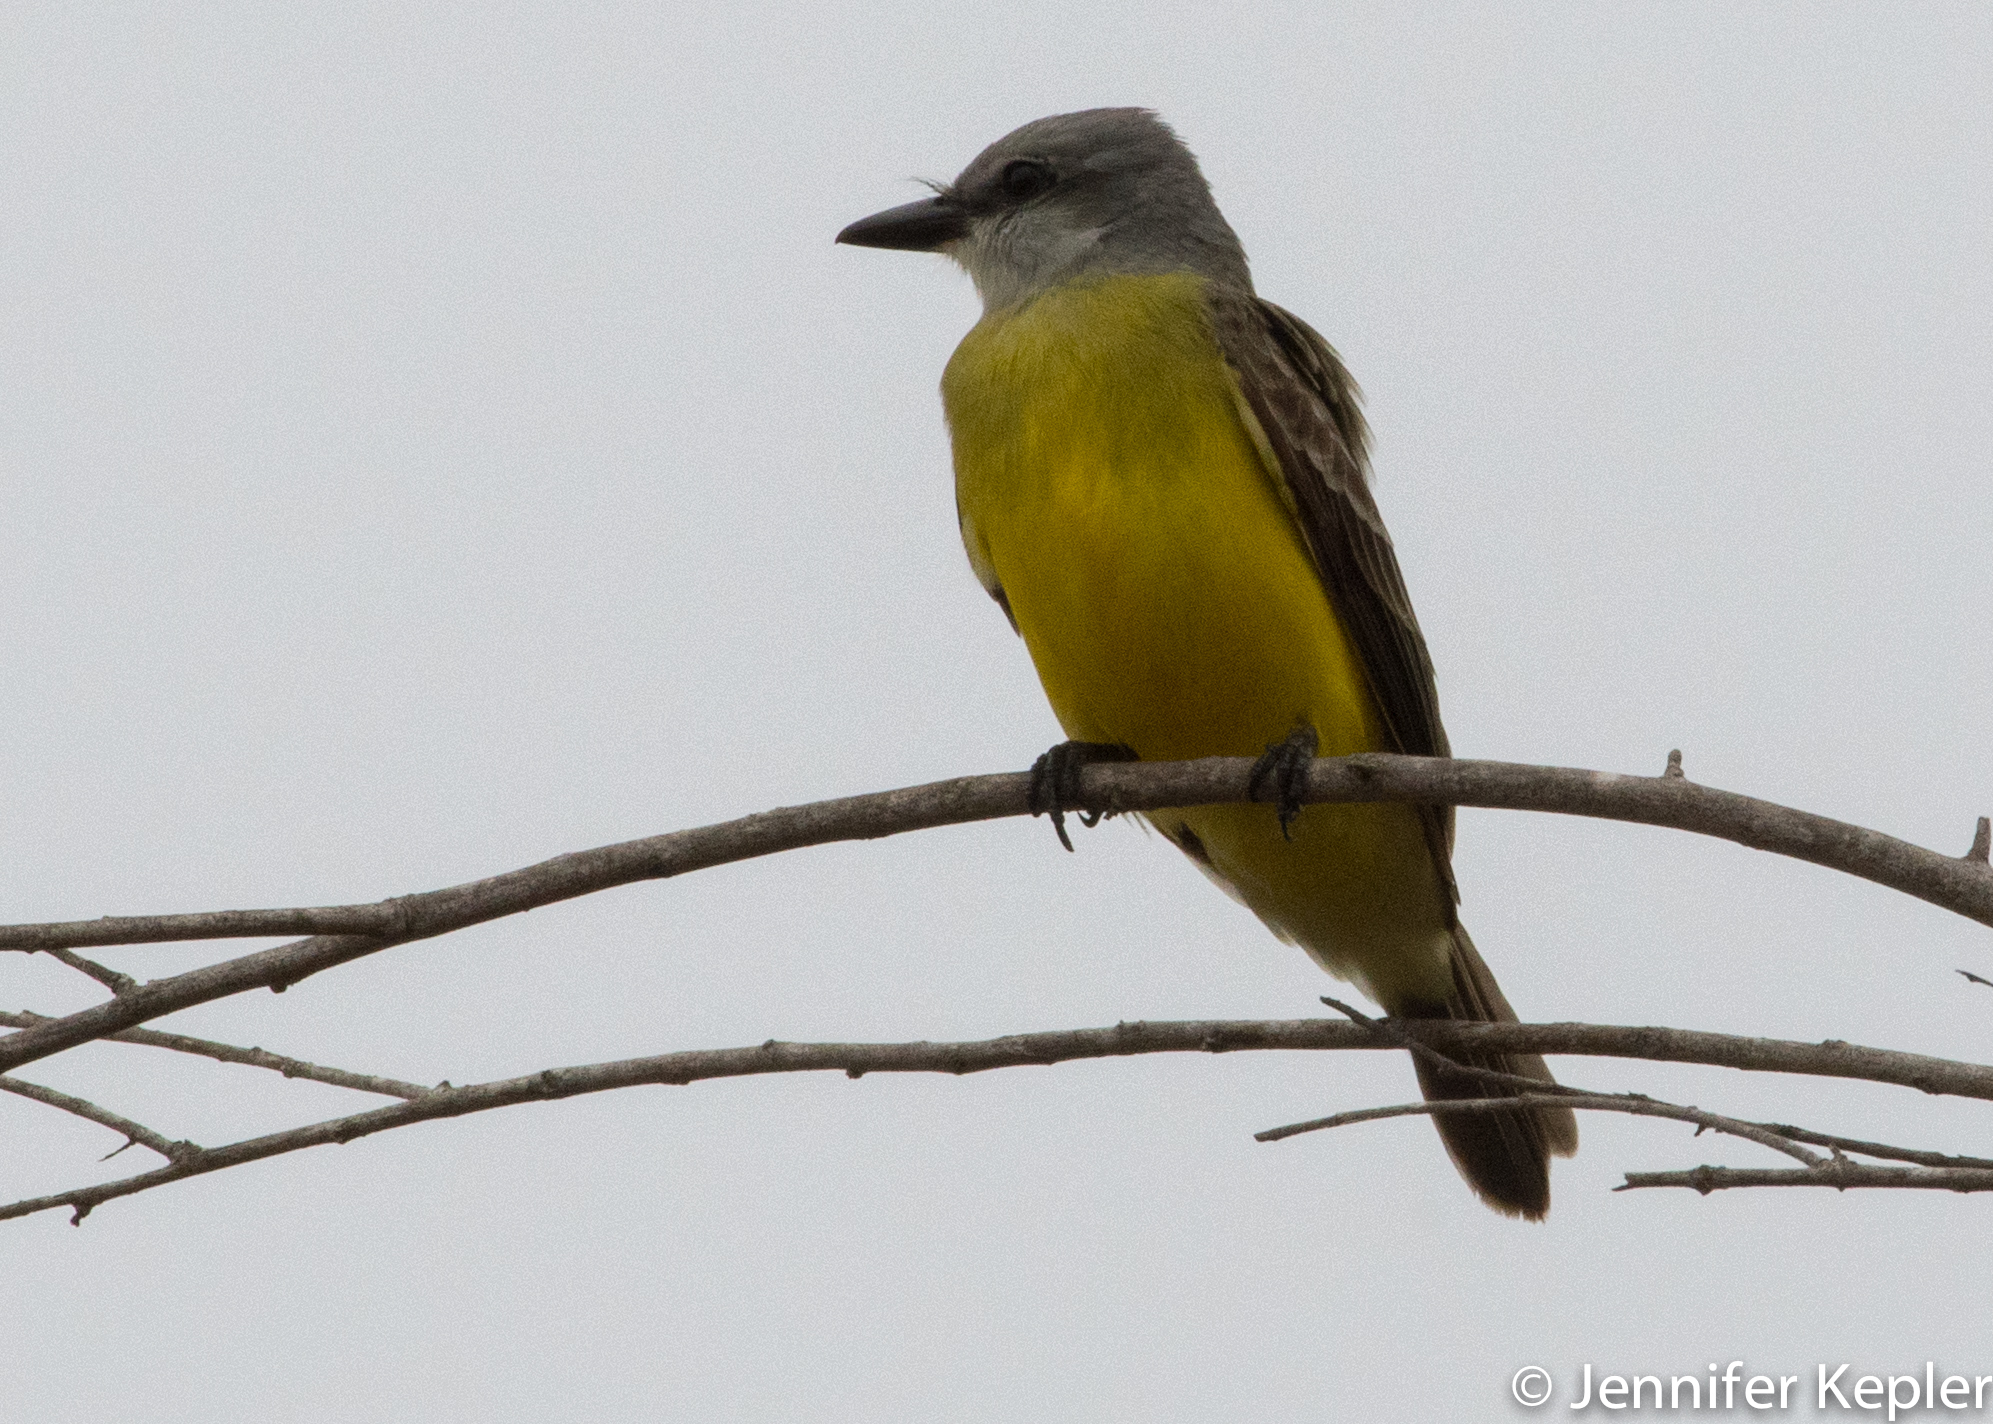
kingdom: Animalia
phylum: Chordata
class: Aves
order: Passeriformes
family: Tyrannidae
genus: Tyrannus
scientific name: Tyrannus couchii
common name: Couch's kingbird
